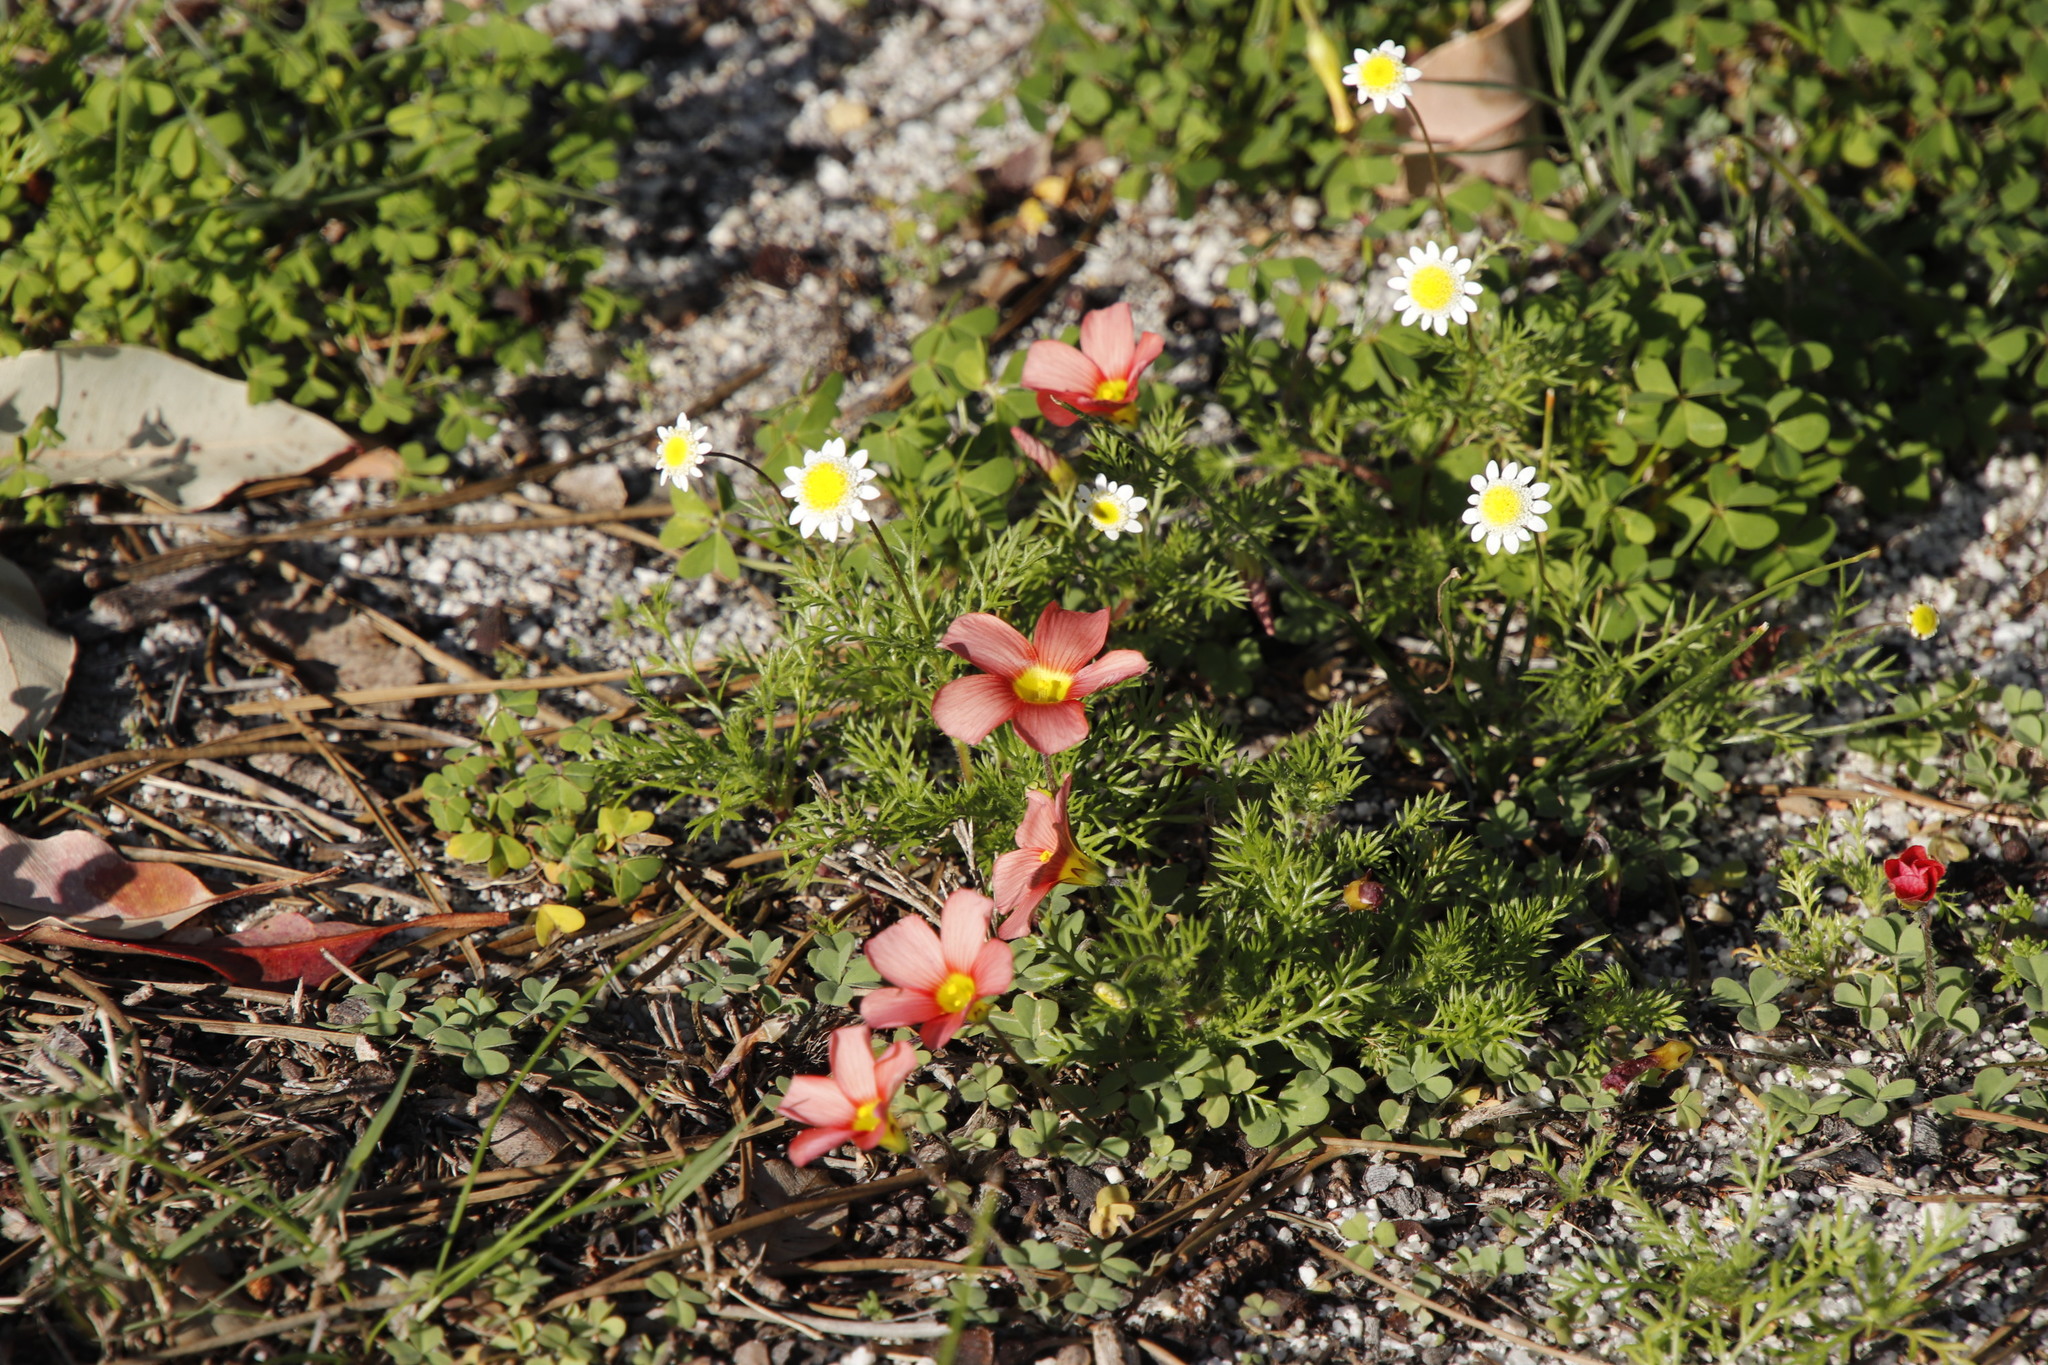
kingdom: Plantae
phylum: Tracheophyta
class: Magnoliopsida
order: Oxalidales
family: Oxalidaceae
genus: Oxalis
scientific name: Oxalis obtusa
